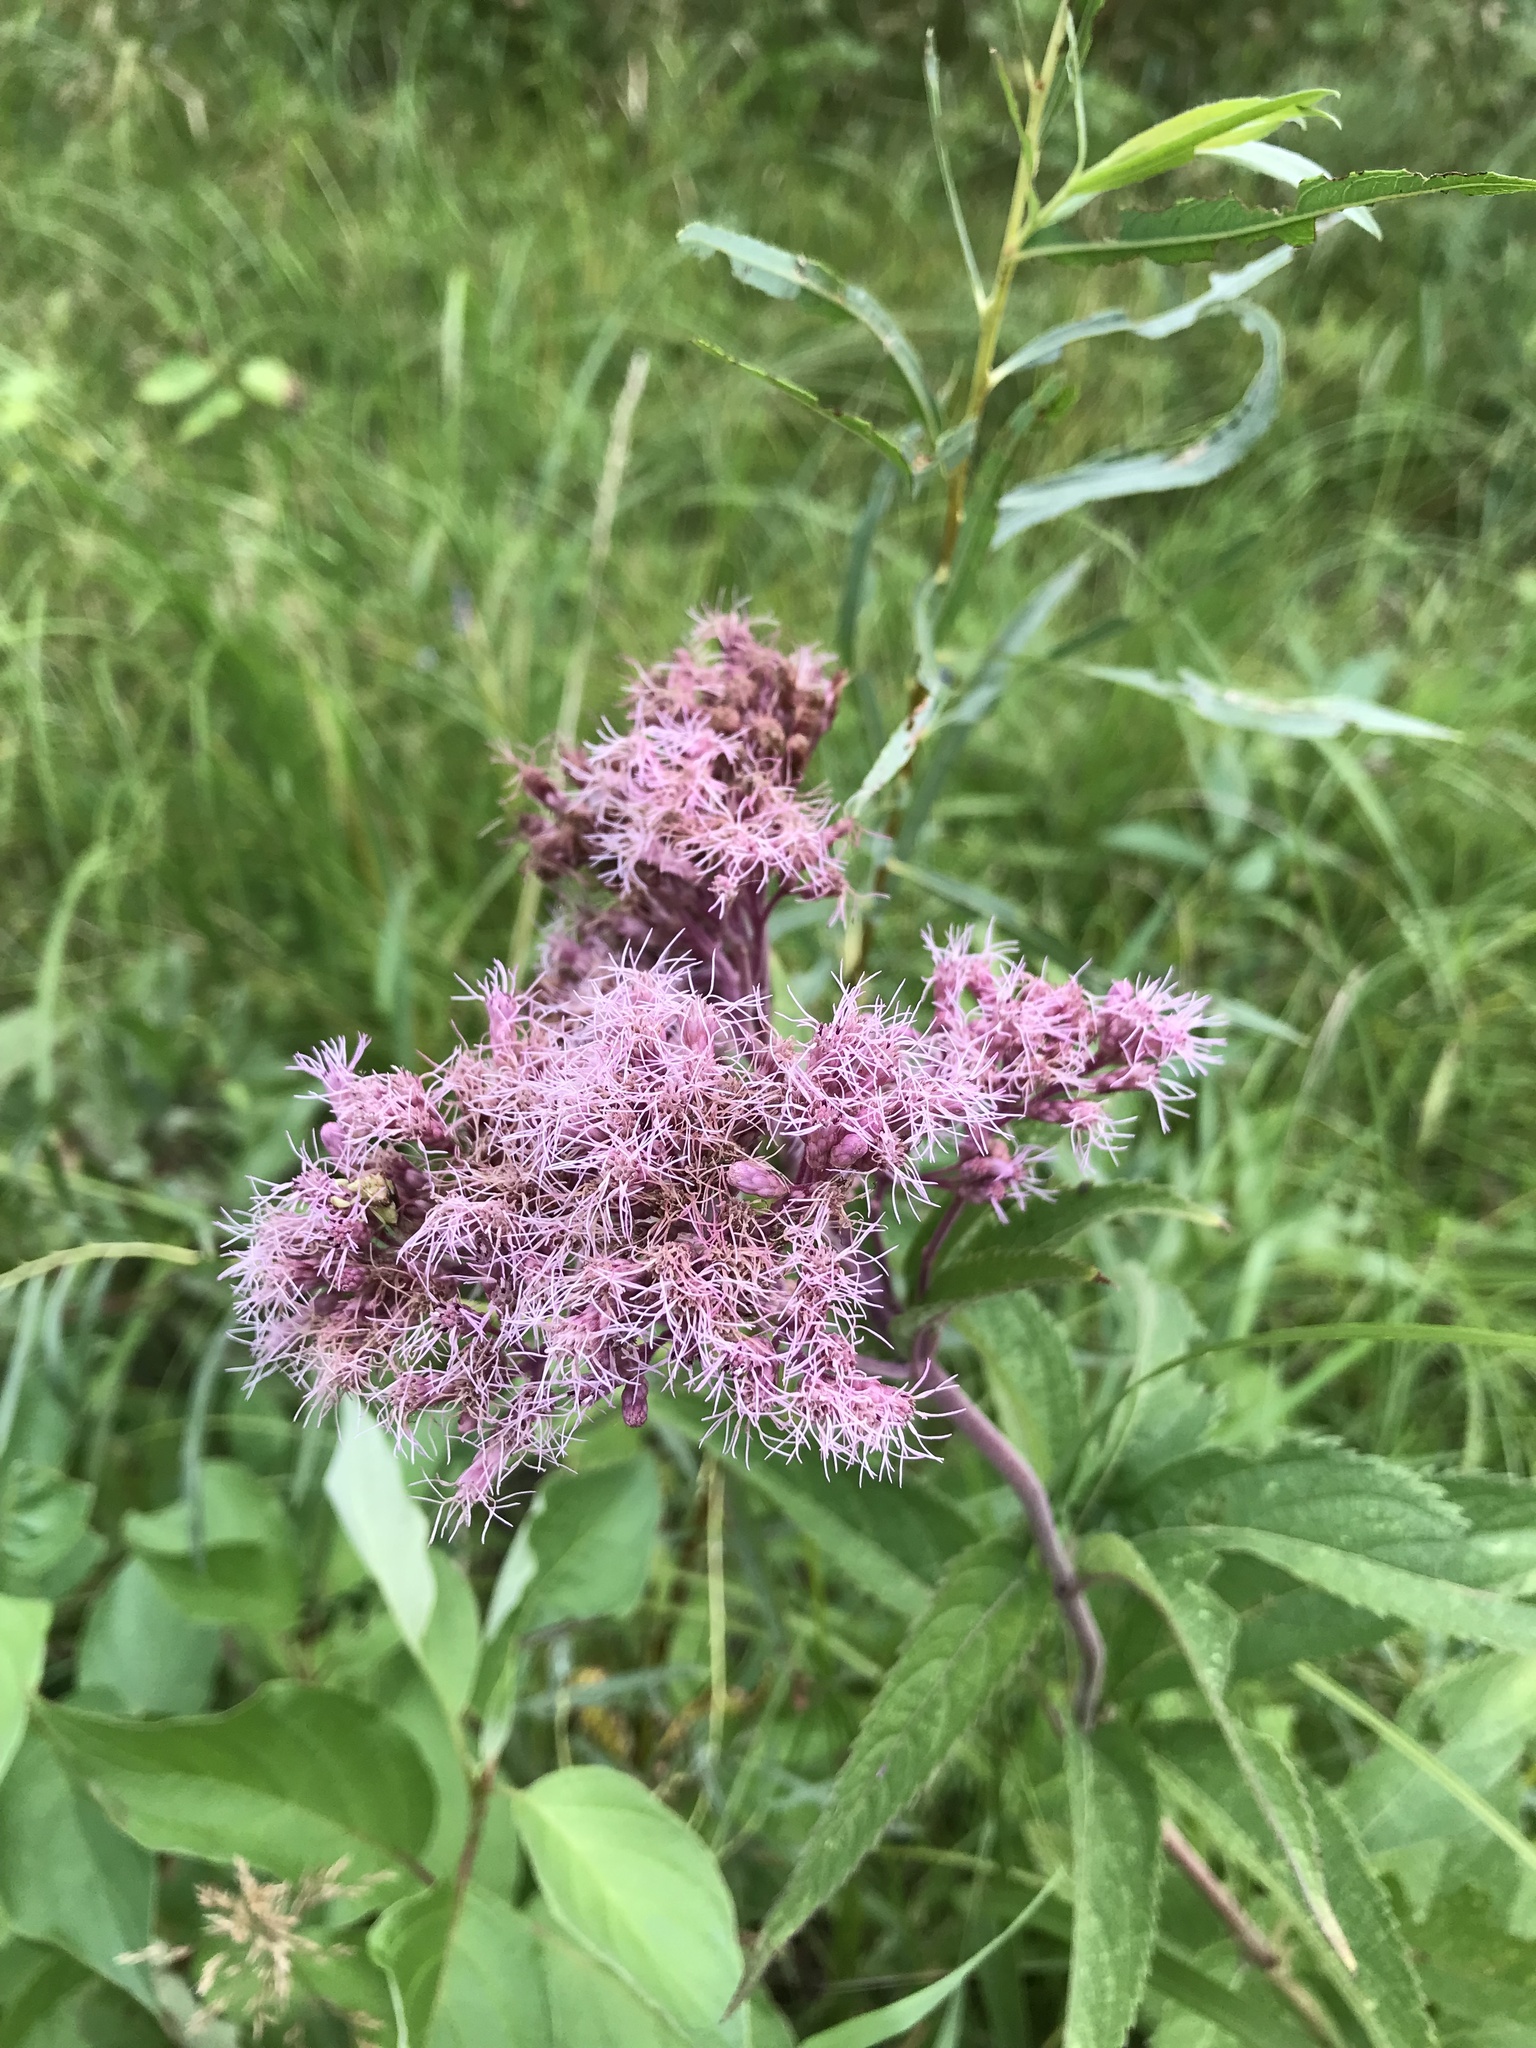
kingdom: Plantae
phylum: Tracheophyta
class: Magnoliopsida
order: Asterales
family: Asteraceae
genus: Eutrochium
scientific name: Eutrochium maculatum
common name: Spotted joe pye weed
